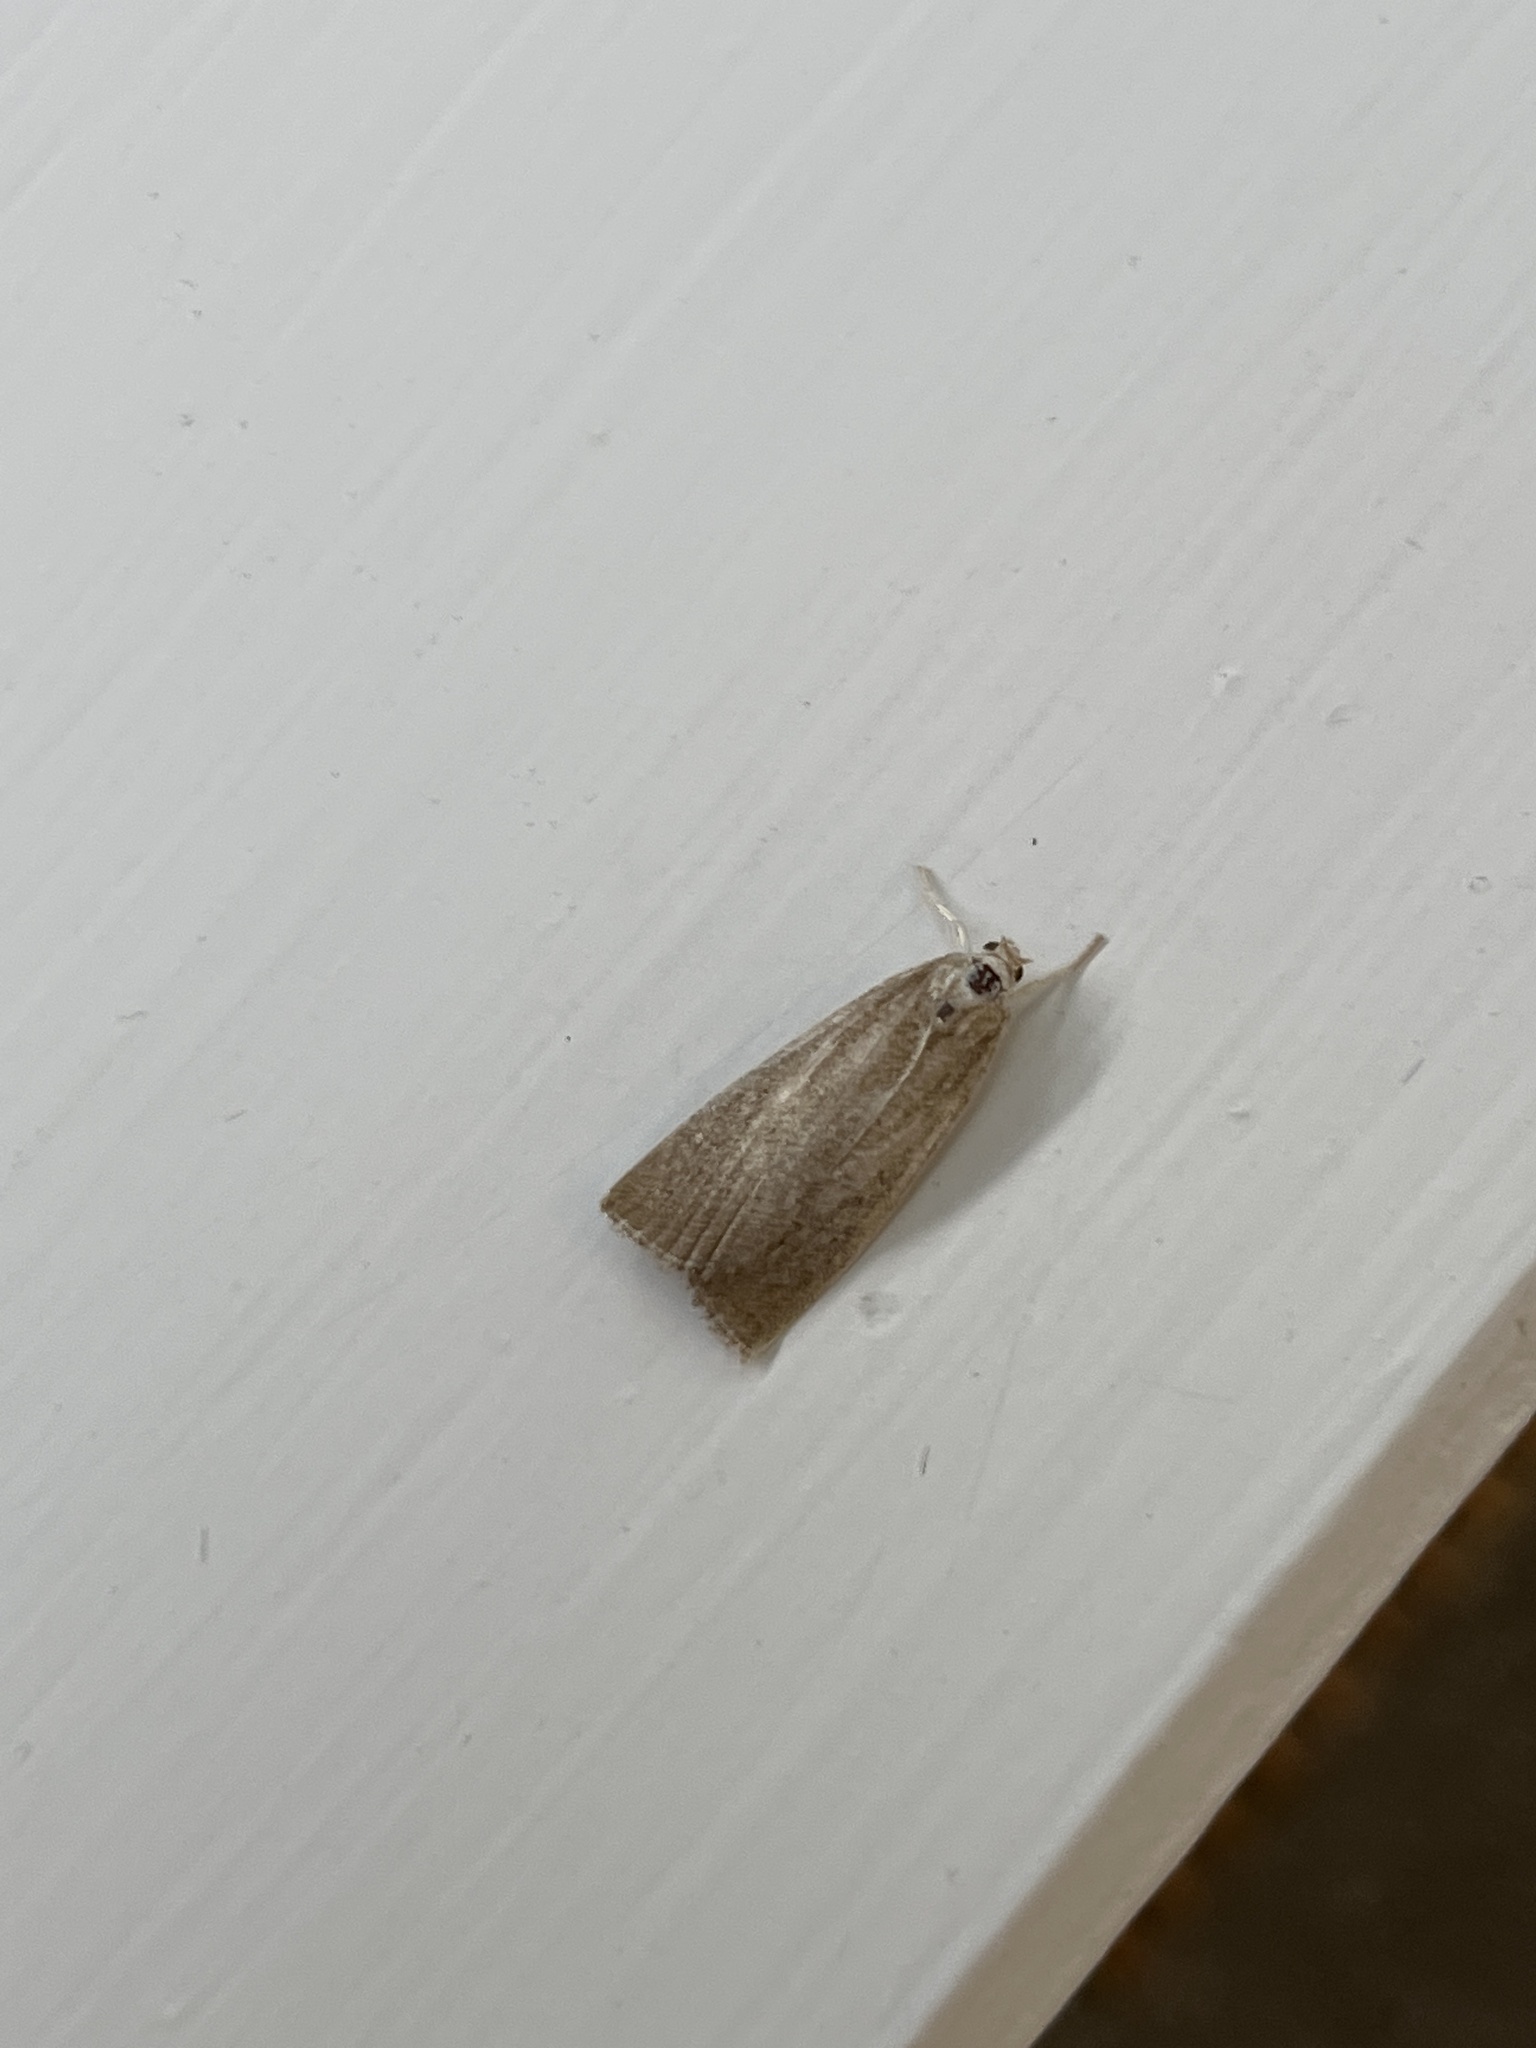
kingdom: Animalia
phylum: Arthropoda
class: Insecta
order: Lepidoptera
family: Crambidae
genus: Calamotropha
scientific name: Calamotropha paludella
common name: Bulrush veneer
